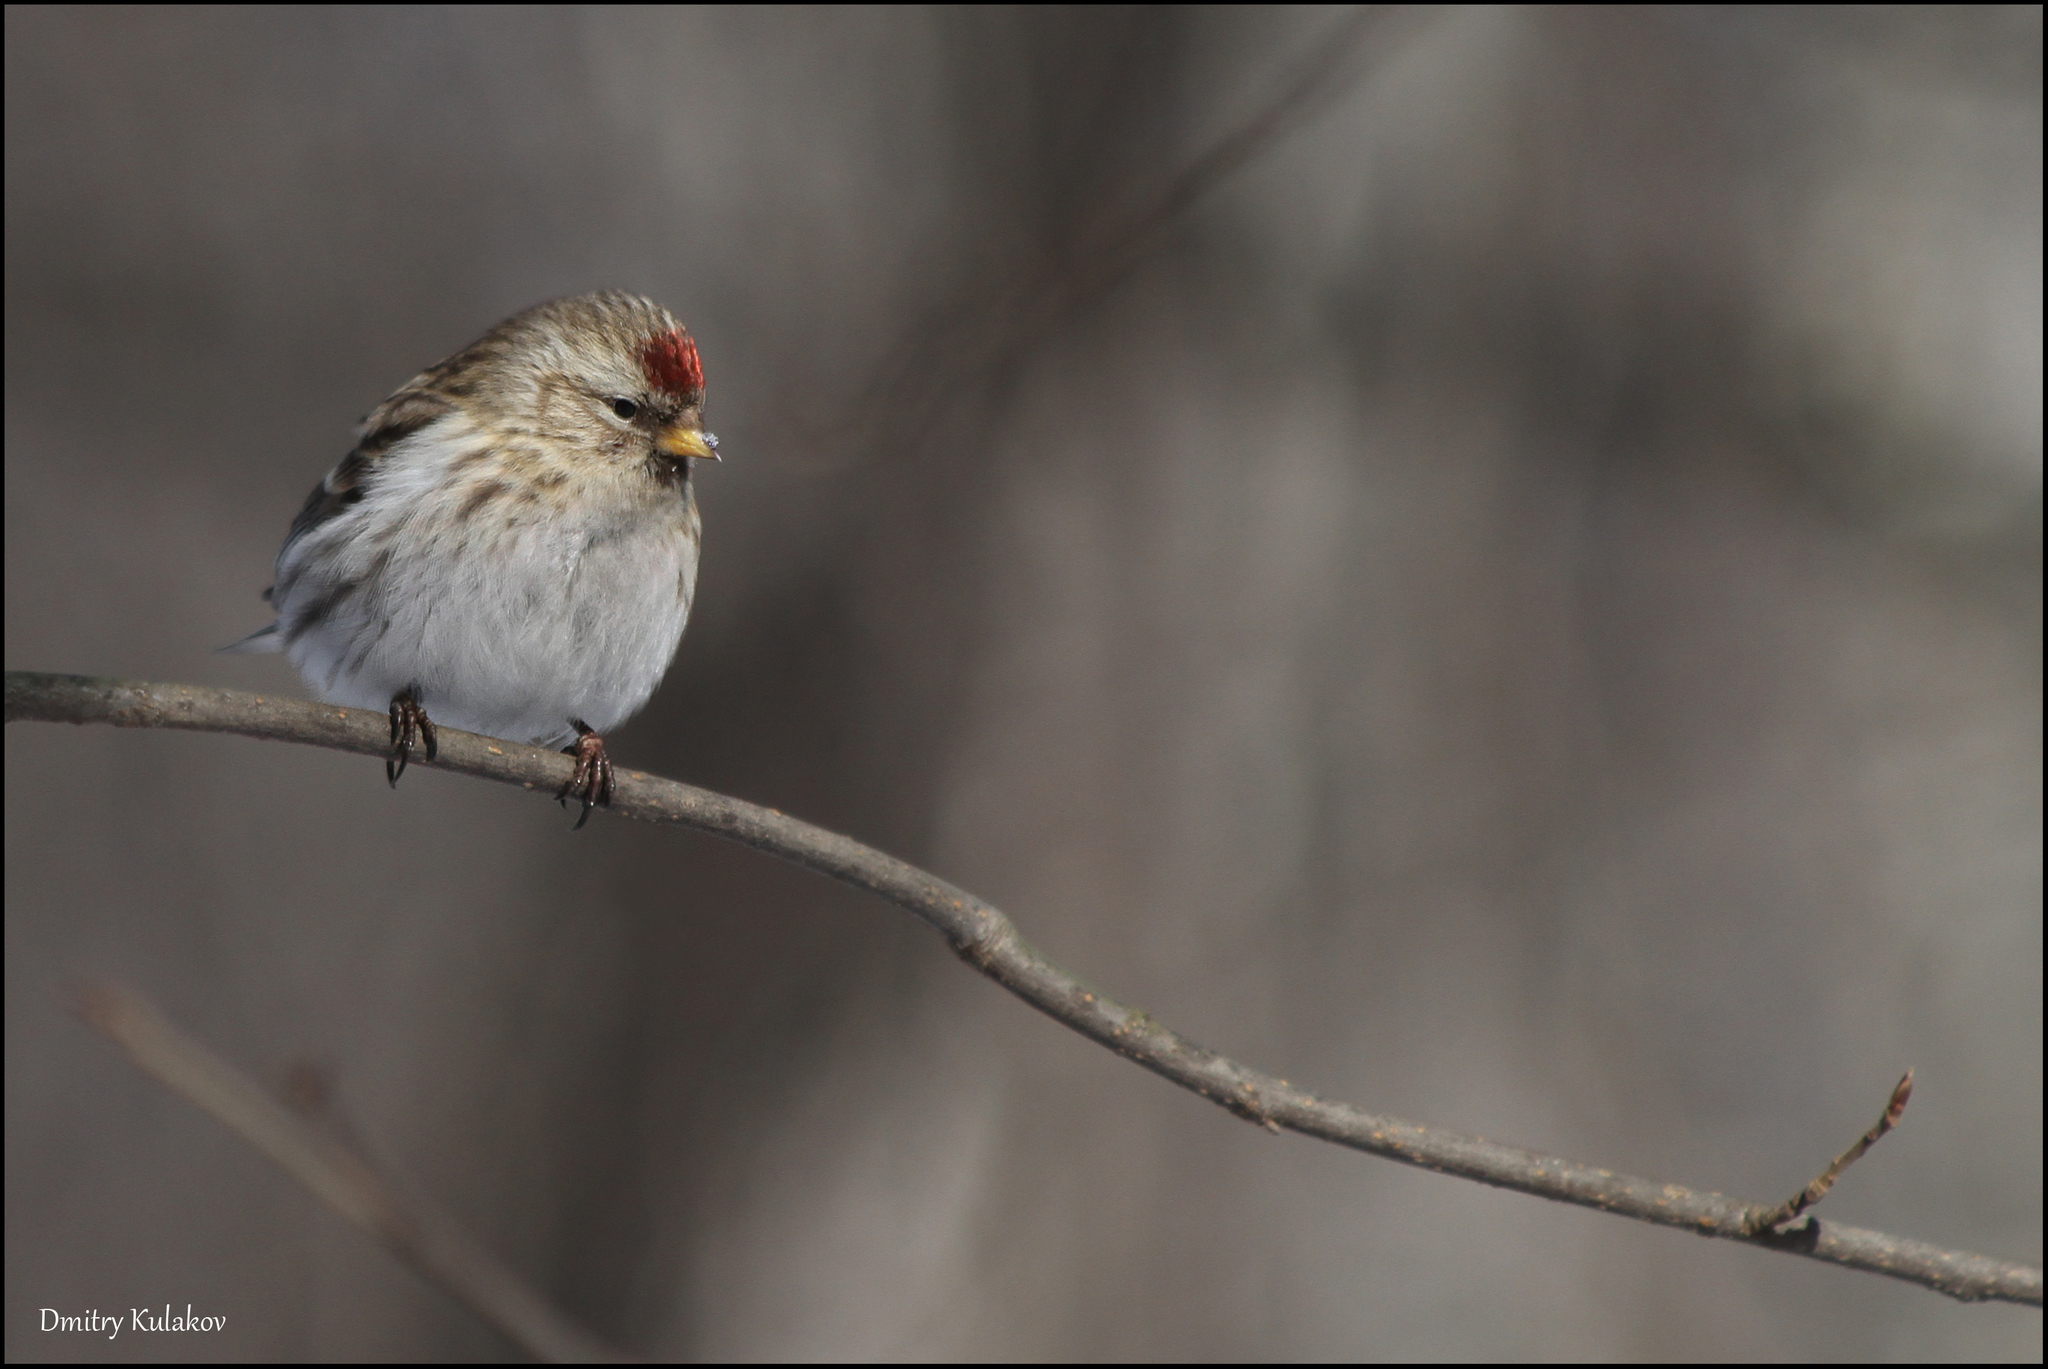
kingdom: Animalia
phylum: Chordata
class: Aves
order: Passeriformes
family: Fringillidae
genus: Acanthis
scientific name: Acanthis flammea
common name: Common redpoll
